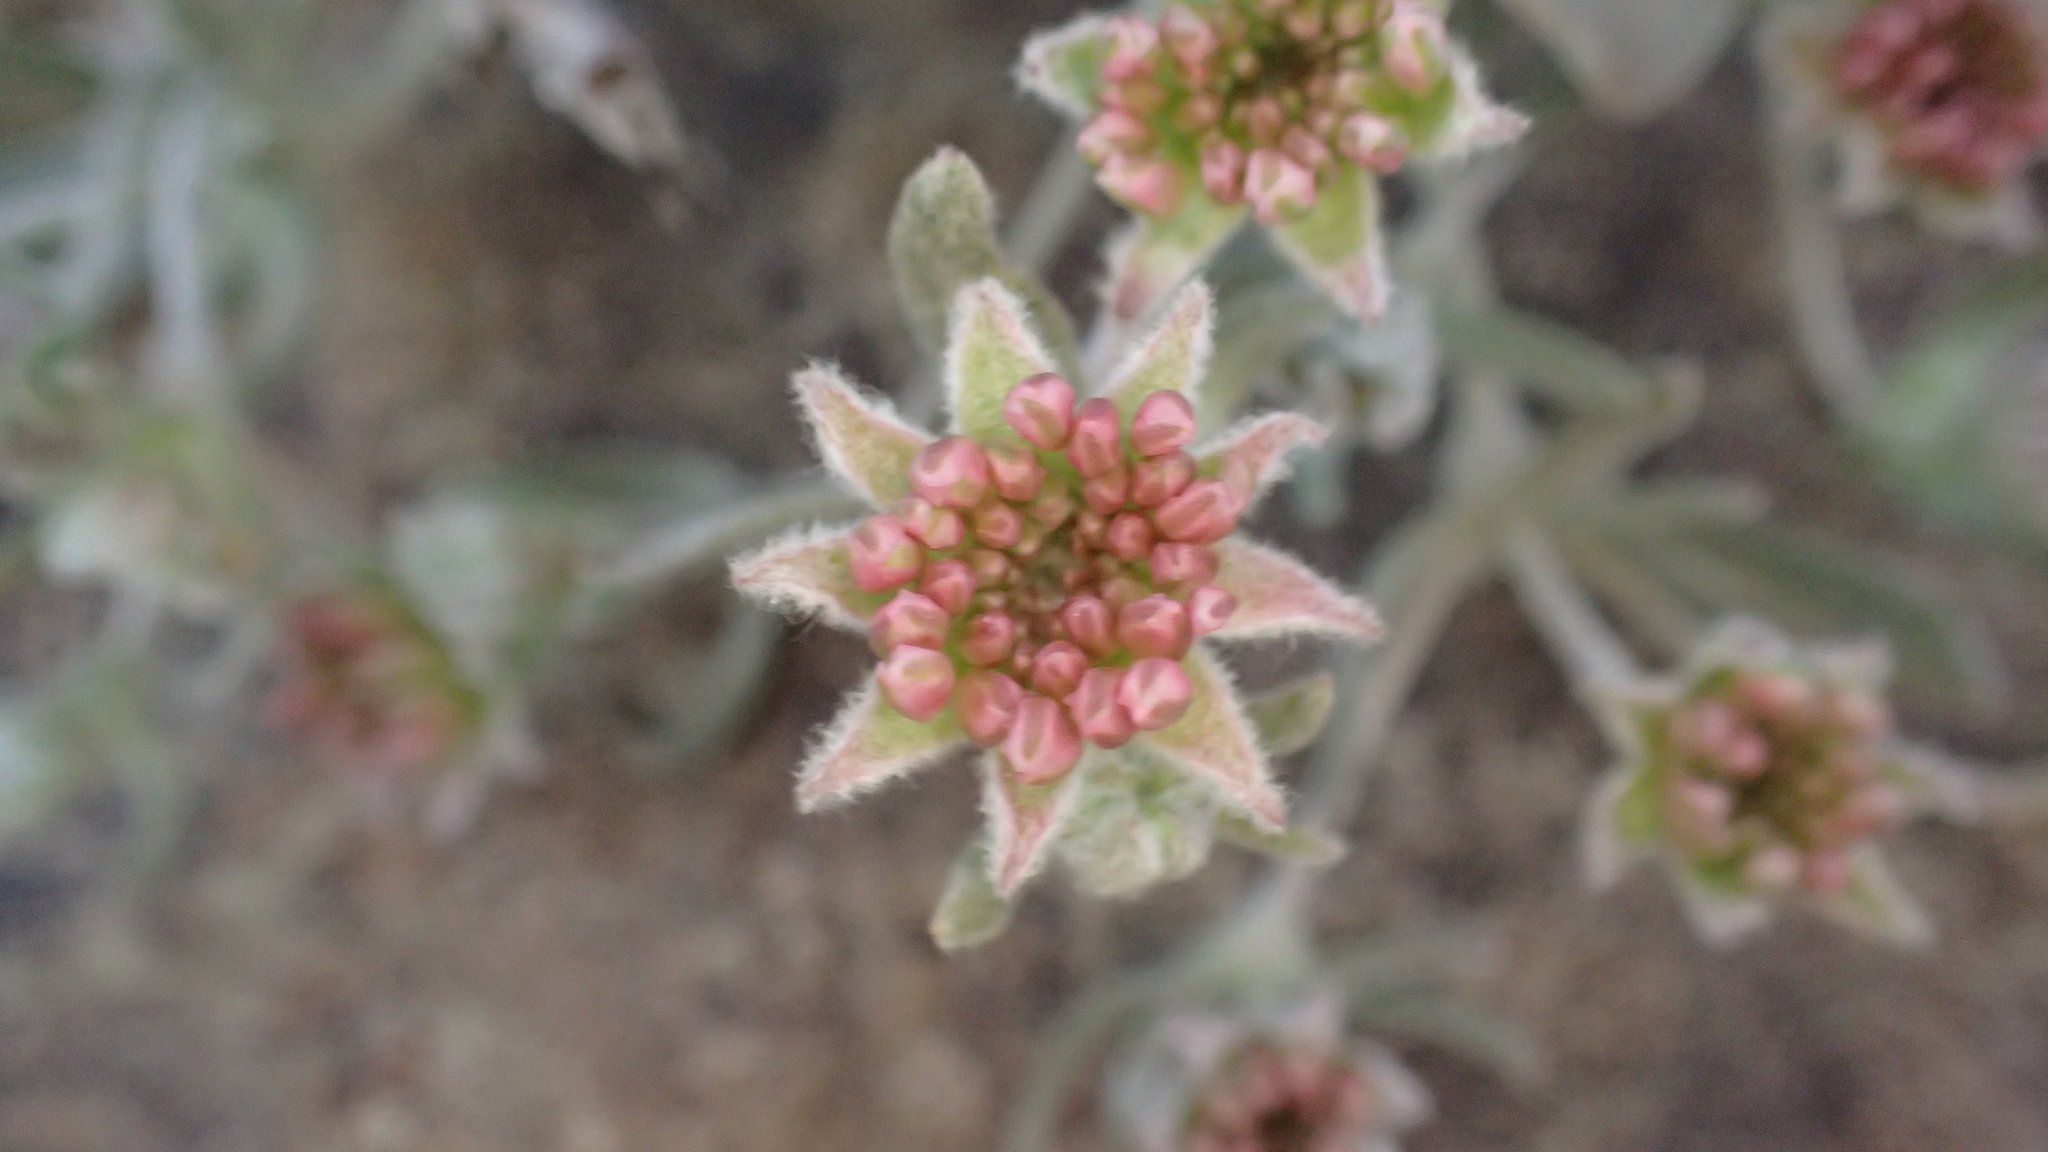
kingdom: Plantae
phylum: Tracheophyta
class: Magnoliopsida
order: Caryophyllales
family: Polygonaceae
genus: Eriogonum
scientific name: Eriogonum lobbii
